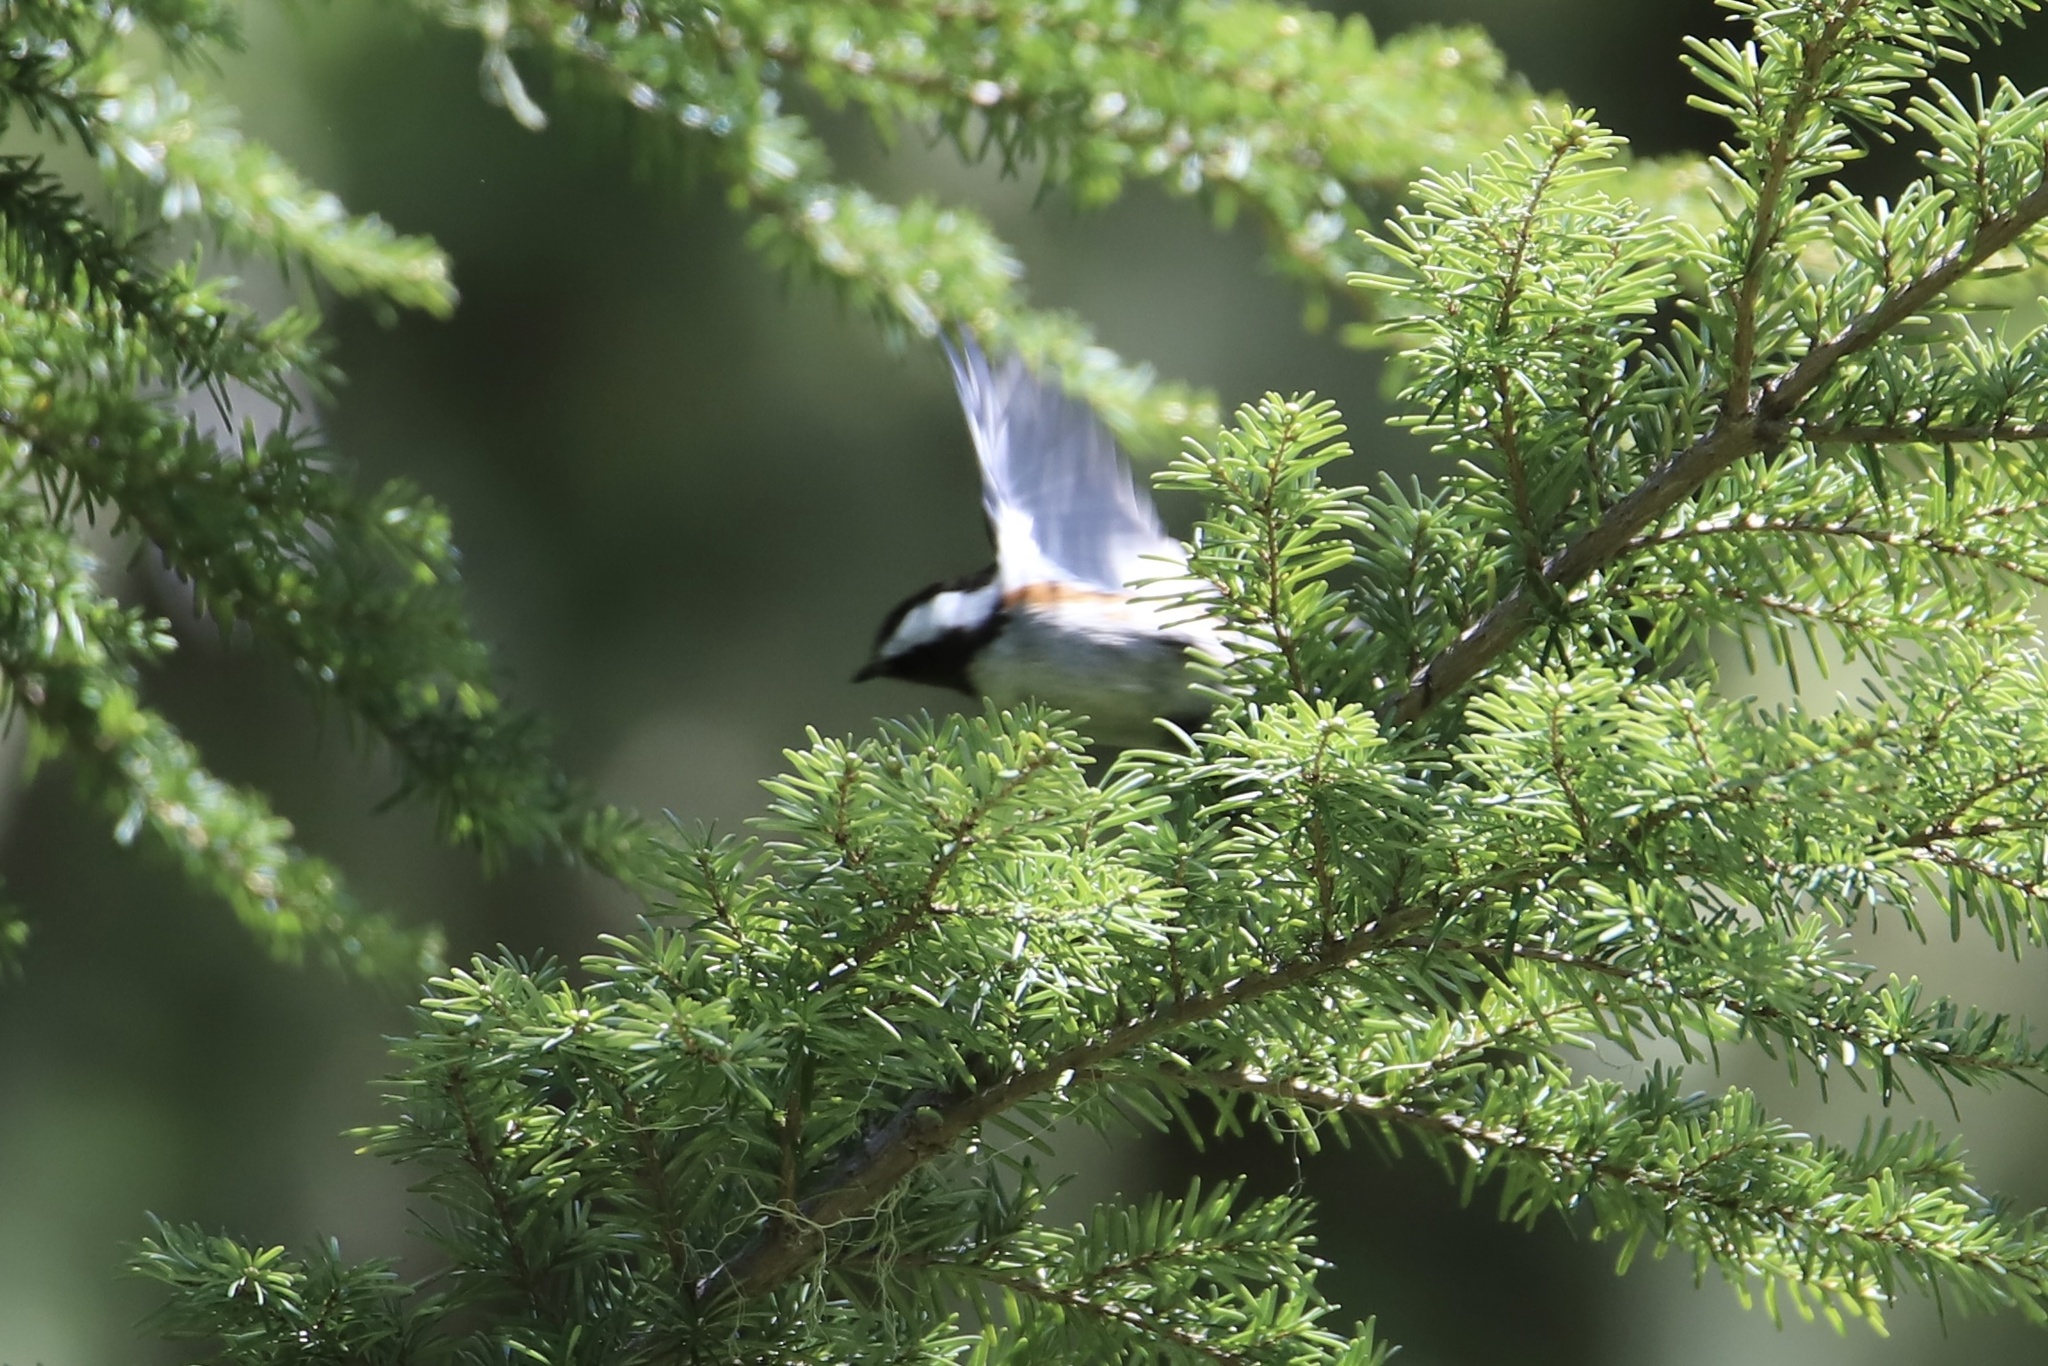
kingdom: Animalia
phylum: Chordata
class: Aves
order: Passeriformes
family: Paridae
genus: Poecile
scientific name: Poecile rufescens
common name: Chestnut-backed chickadee
